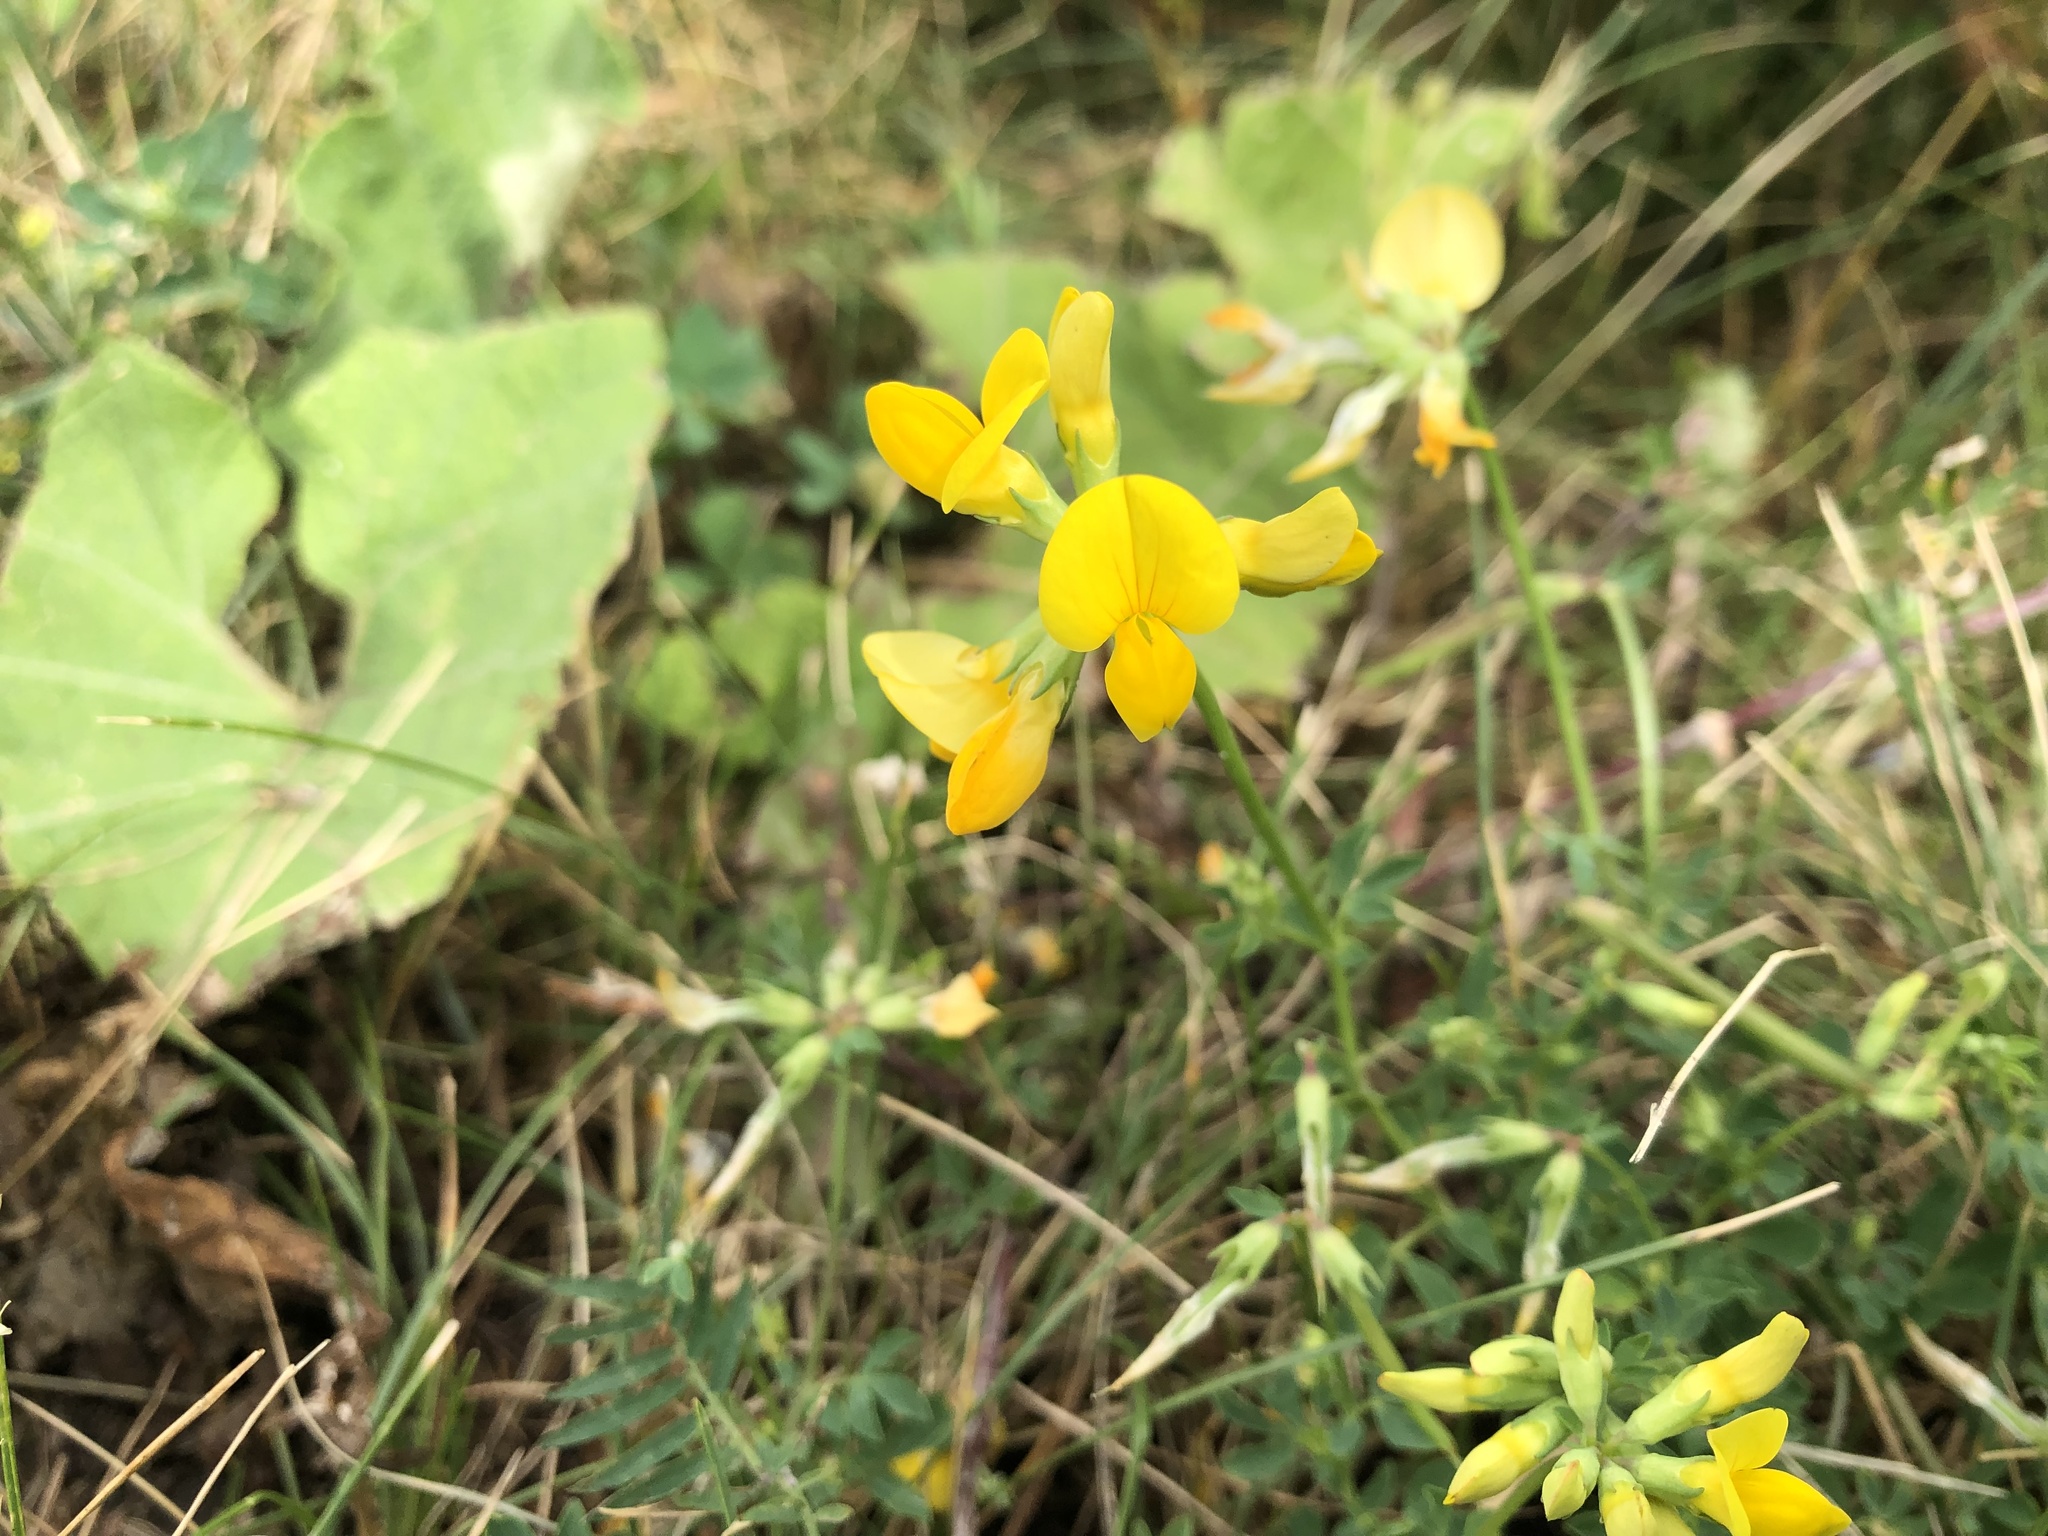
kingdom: Plantae
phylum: Tracheophyta
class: Magnoliopsida
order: Fabales
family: Fabaceae
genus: Lotus
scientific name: Lotus corniculatus
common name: Common bird's-foot-trefoil
